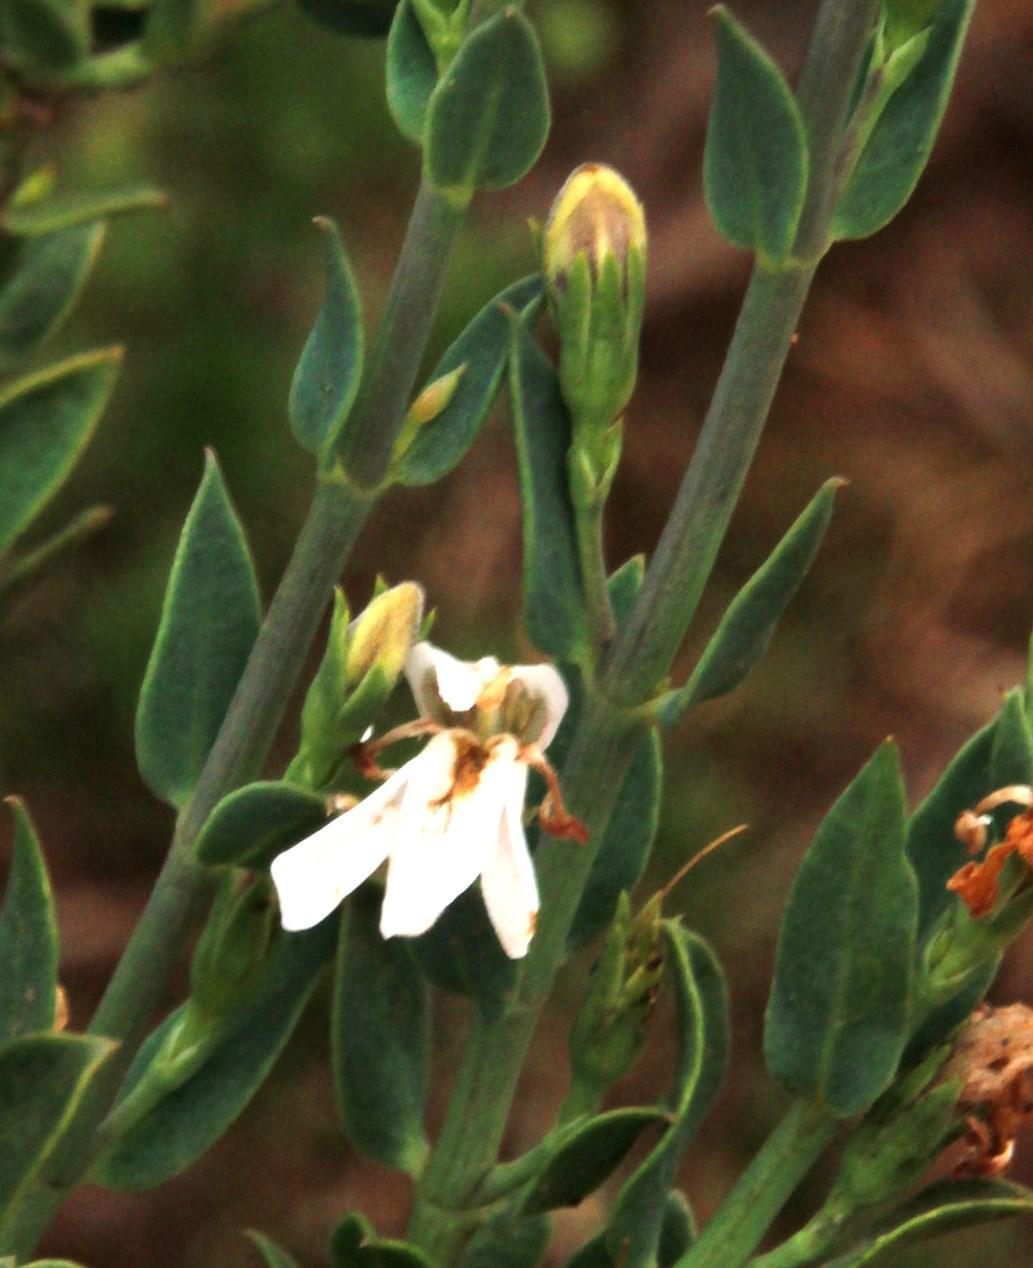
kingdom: Plantae
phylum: Tracheophyta
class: Magnoliopsida
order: Lamiales
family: Acanthaceae
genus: Justicia
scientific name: Justicia cuneata
